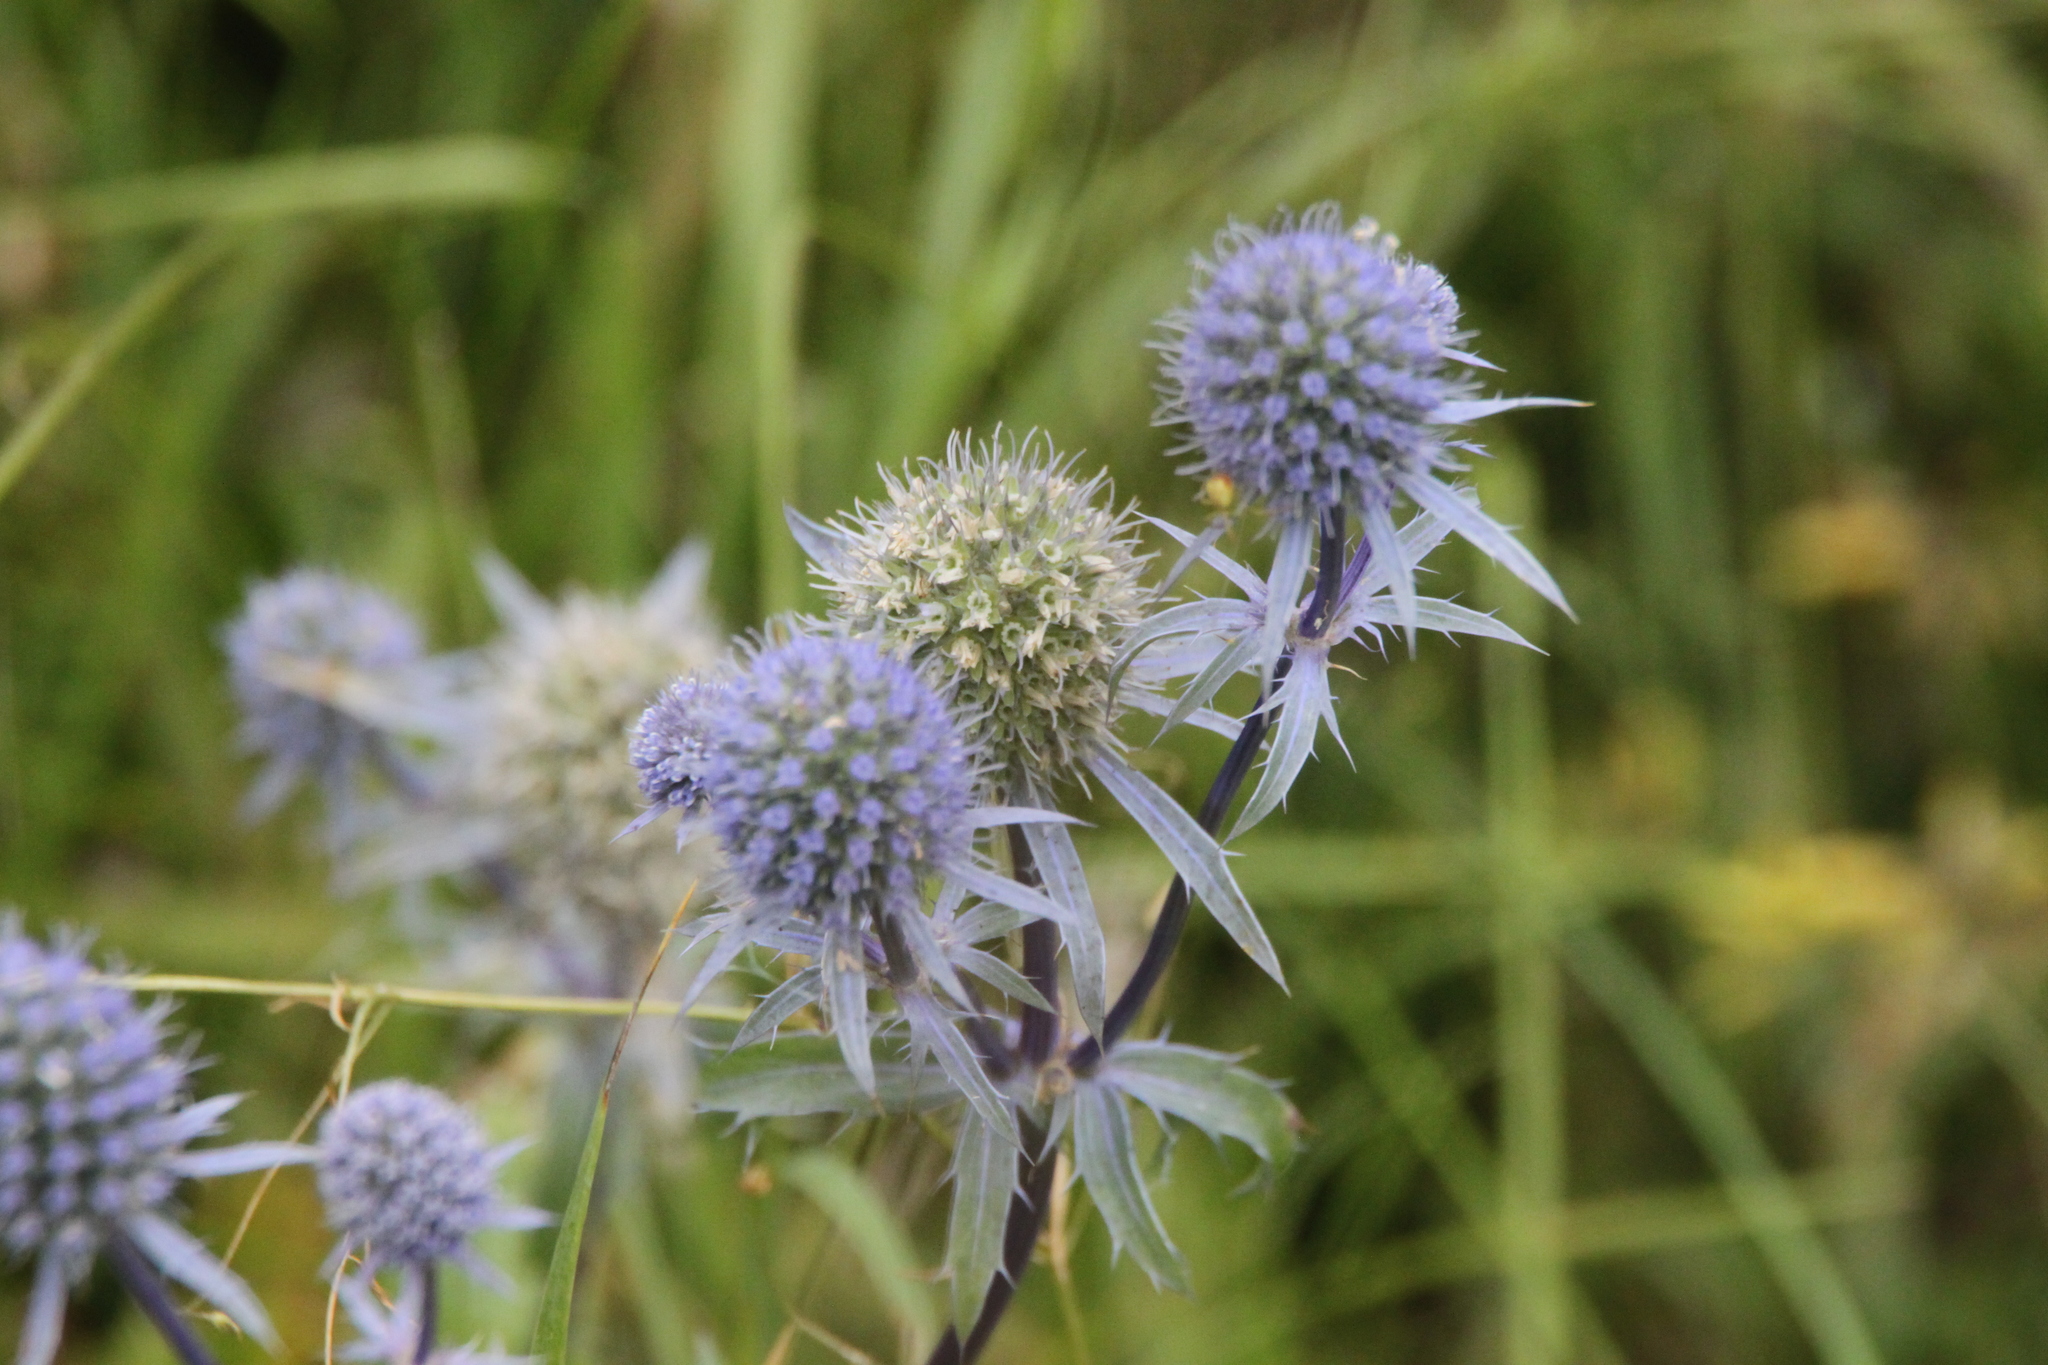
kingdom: Plantae
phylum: Tracheophyta
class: Magnoliopsida
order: Apiales
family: Apiaceae
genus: Eryngium
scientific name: Eryngium planum
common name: Blue eryngo
